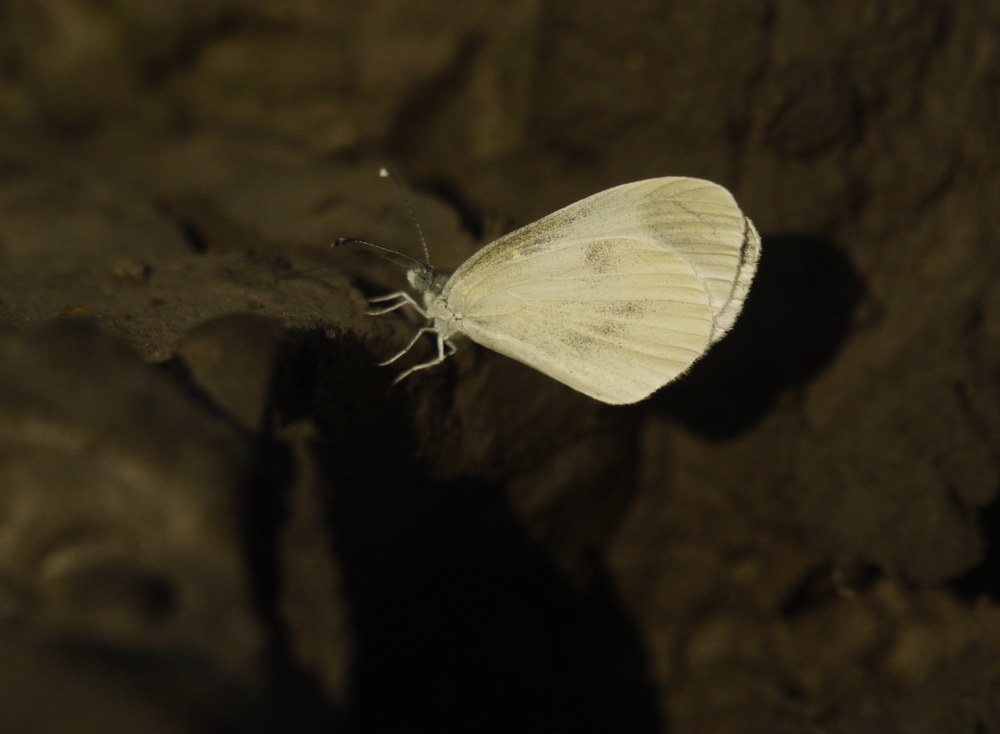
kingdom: Animalia
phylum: Arthropoda
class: Insecta
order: Lepidoptera
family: Pieridae
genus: Leptidea
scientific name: Leptidea
